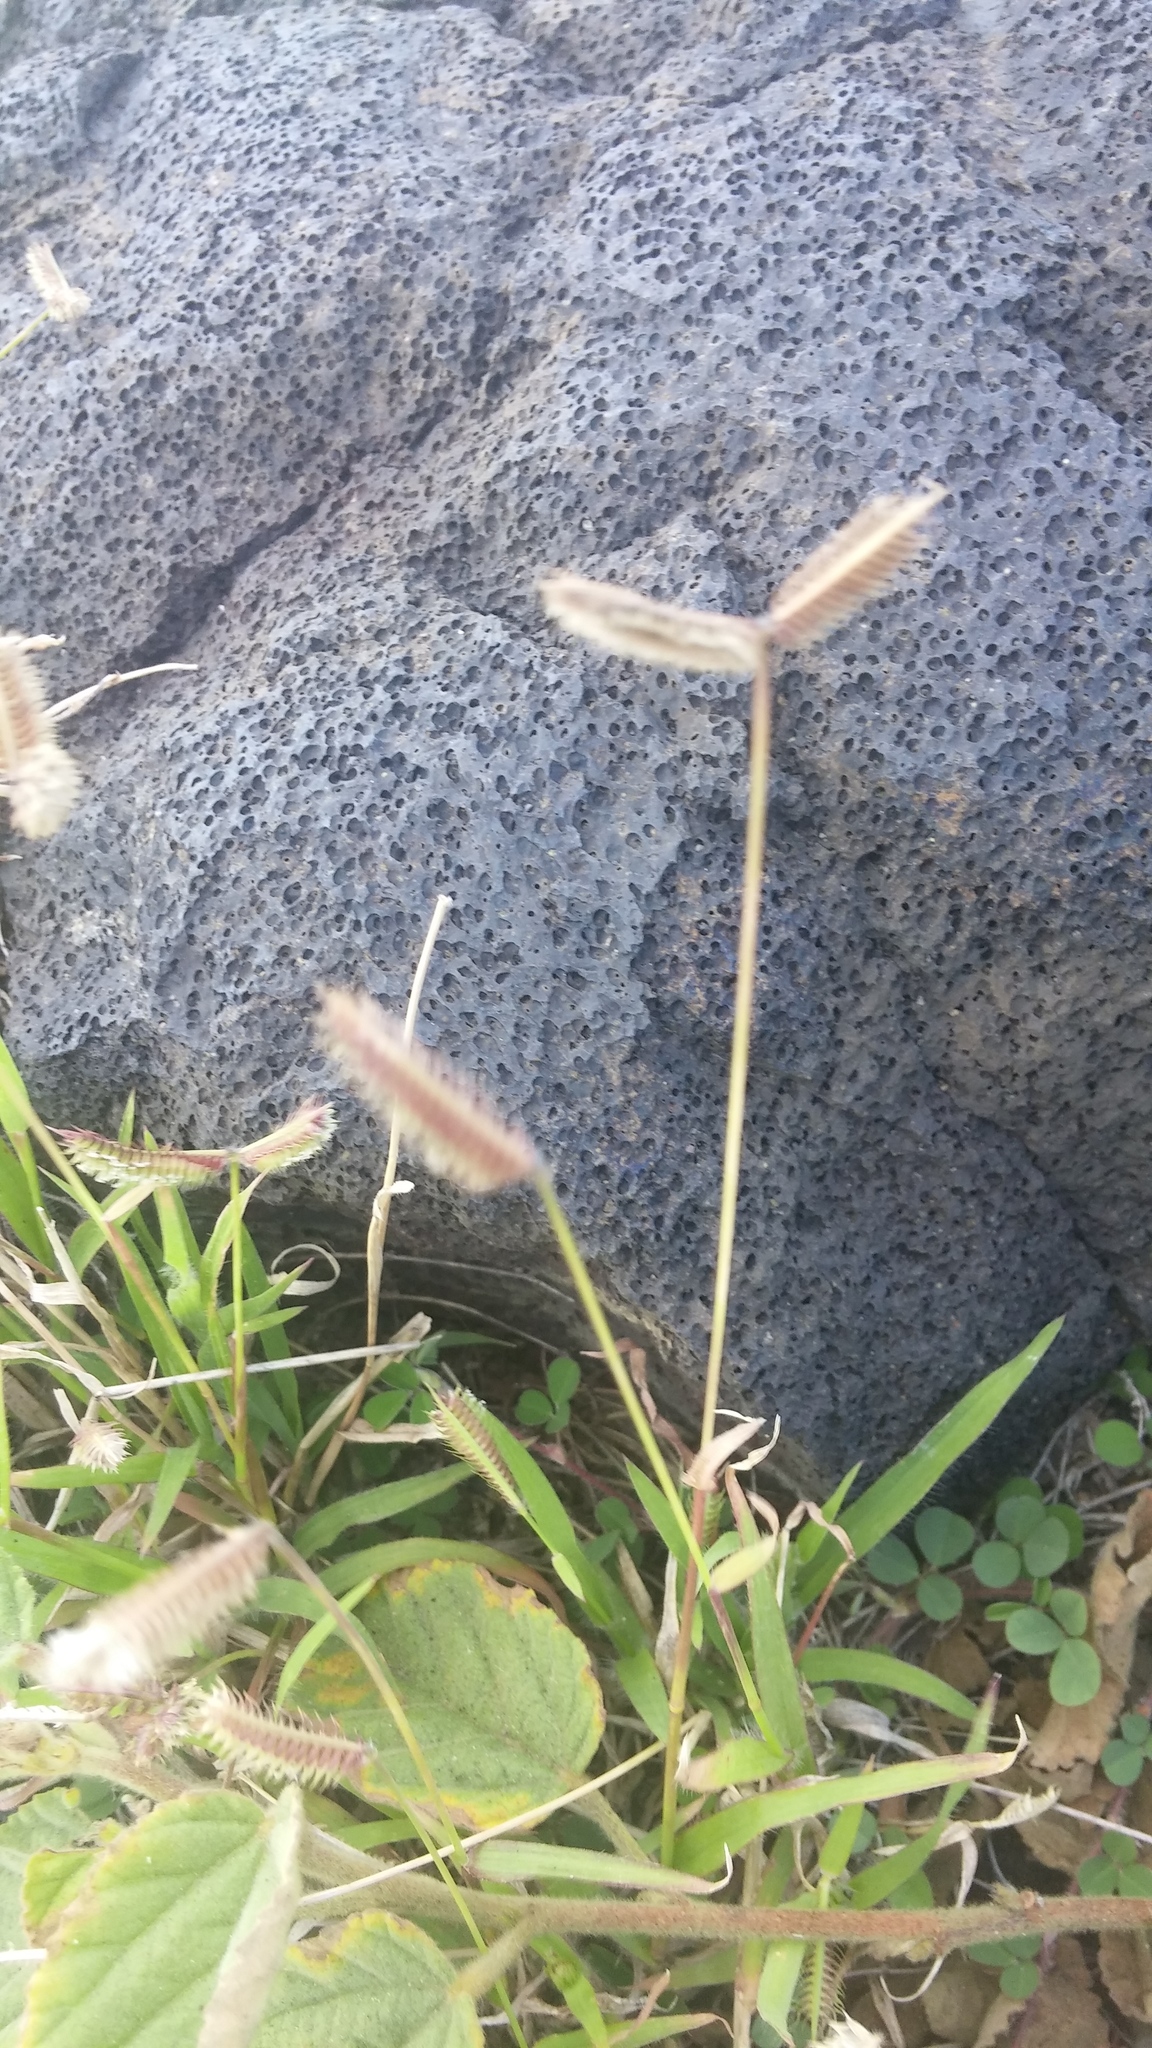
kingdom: Plantae
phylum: Tracheophyta
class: Liliopsida
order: Poales
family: Poaceae
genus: Dactyloctenium
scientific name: Dactyloctenium aegyptium
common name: Egyptian grass
